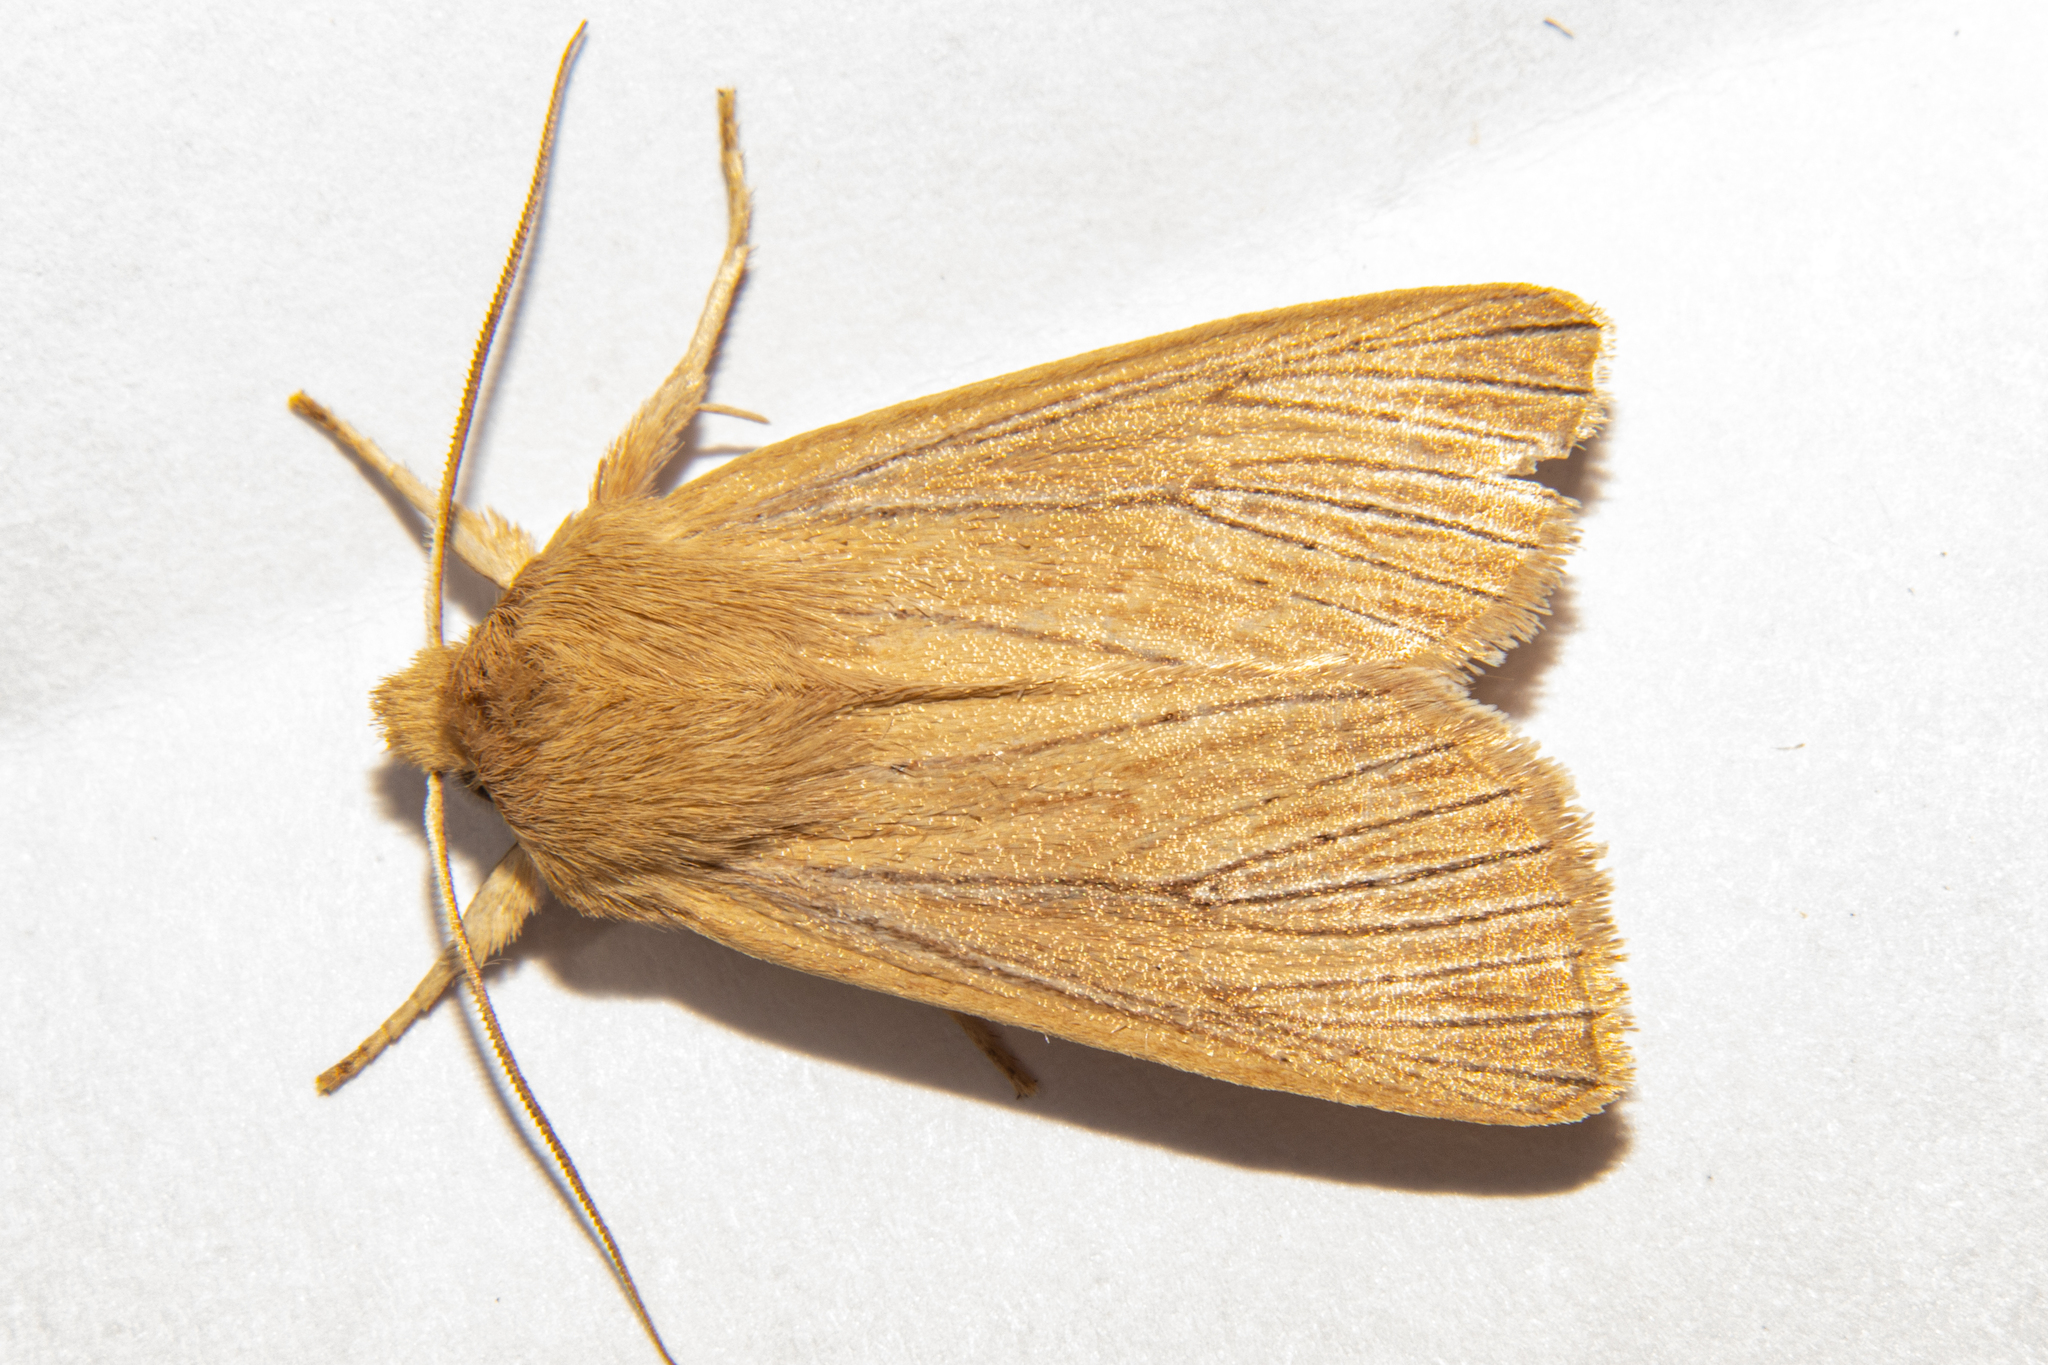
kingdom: Animalia
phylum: Arthropoda
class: Insecta
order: Lepidoptera
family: Noctuidae
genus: Ichneutica
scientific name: Ichneutica arotis
